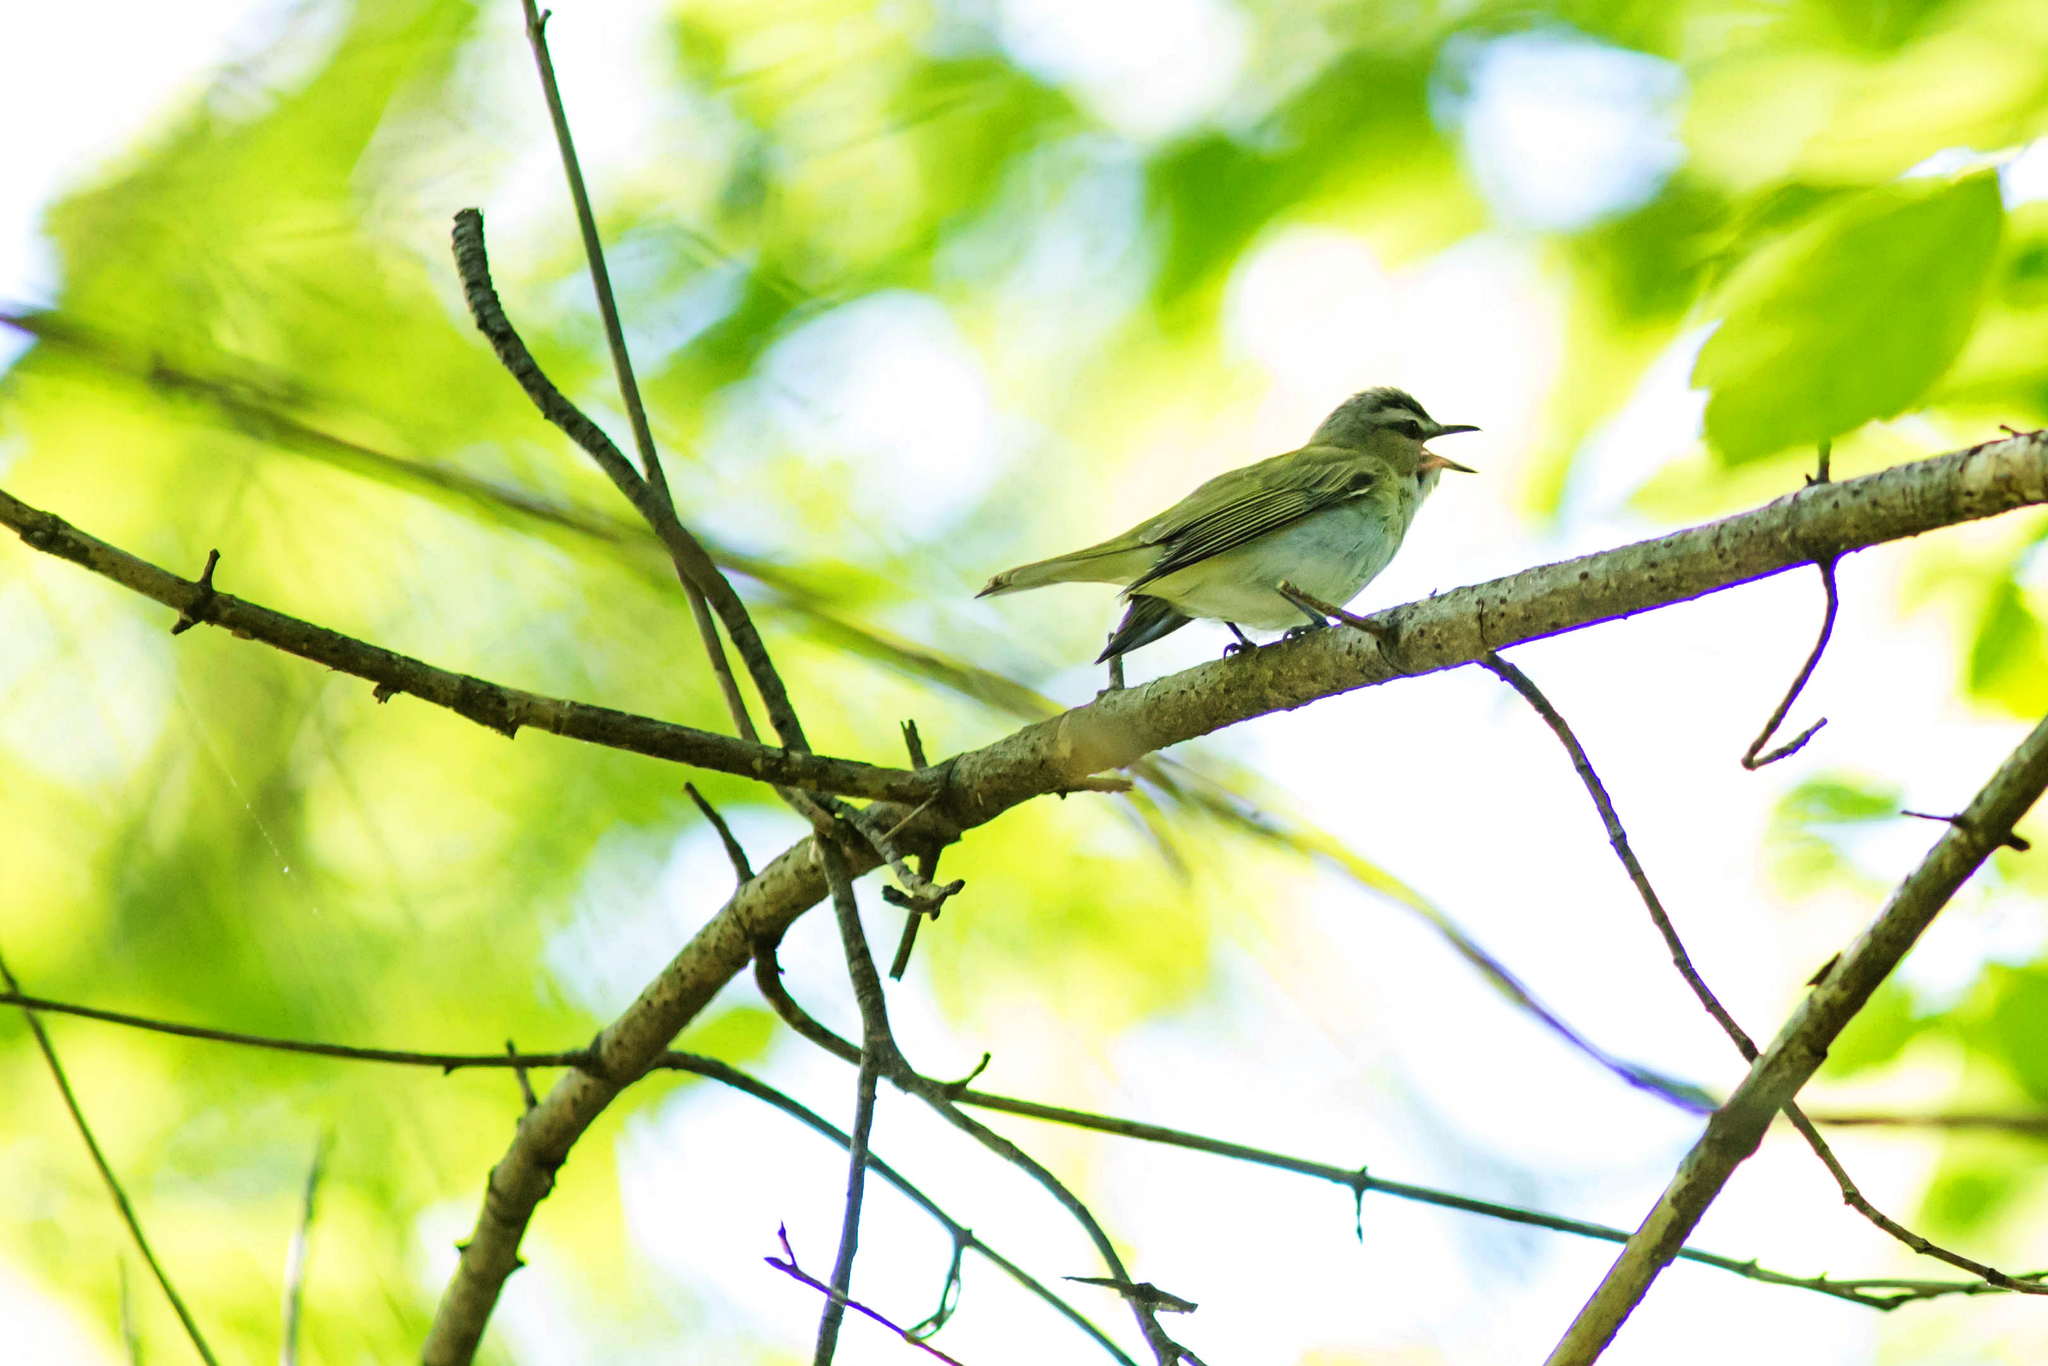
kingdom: Animalia
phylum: Chordata
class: Aves
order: Passeriformes
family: Vireonidae
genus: Vireo
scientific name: Vireo olivaceus
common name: Red-eyed vireo
